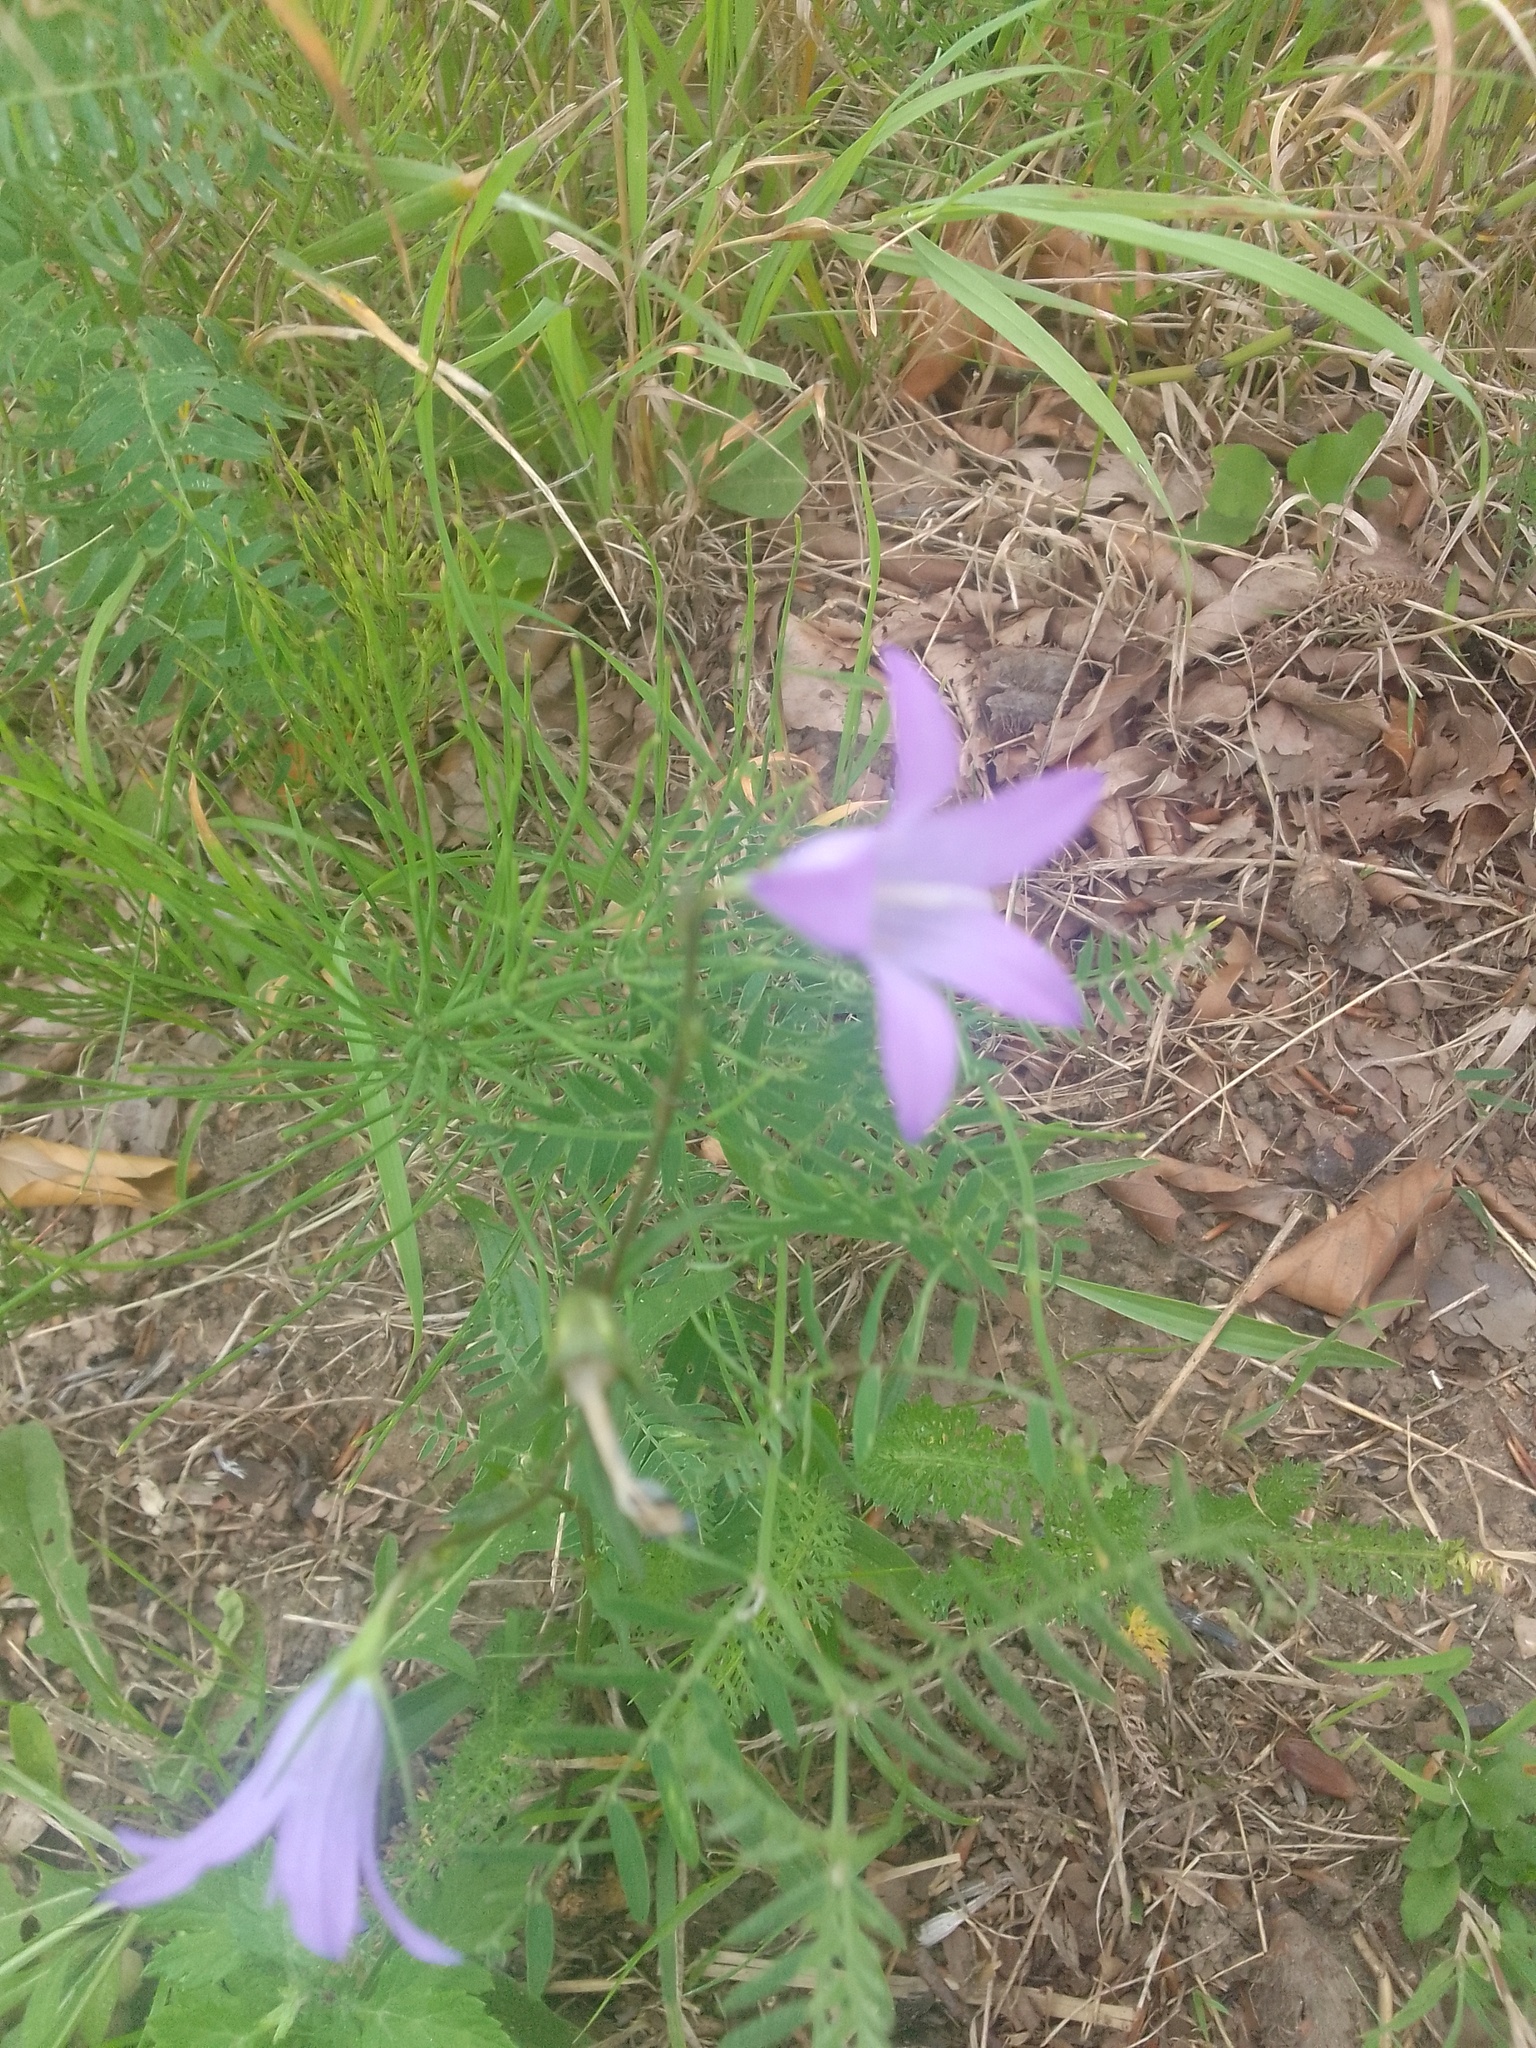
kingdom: Plantae
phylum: Tracheophyta
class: Magnoliopsida
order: Asterales
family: Campanulaceae
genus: Campanula
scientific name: Campanula patula
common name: Spreading bellflower
